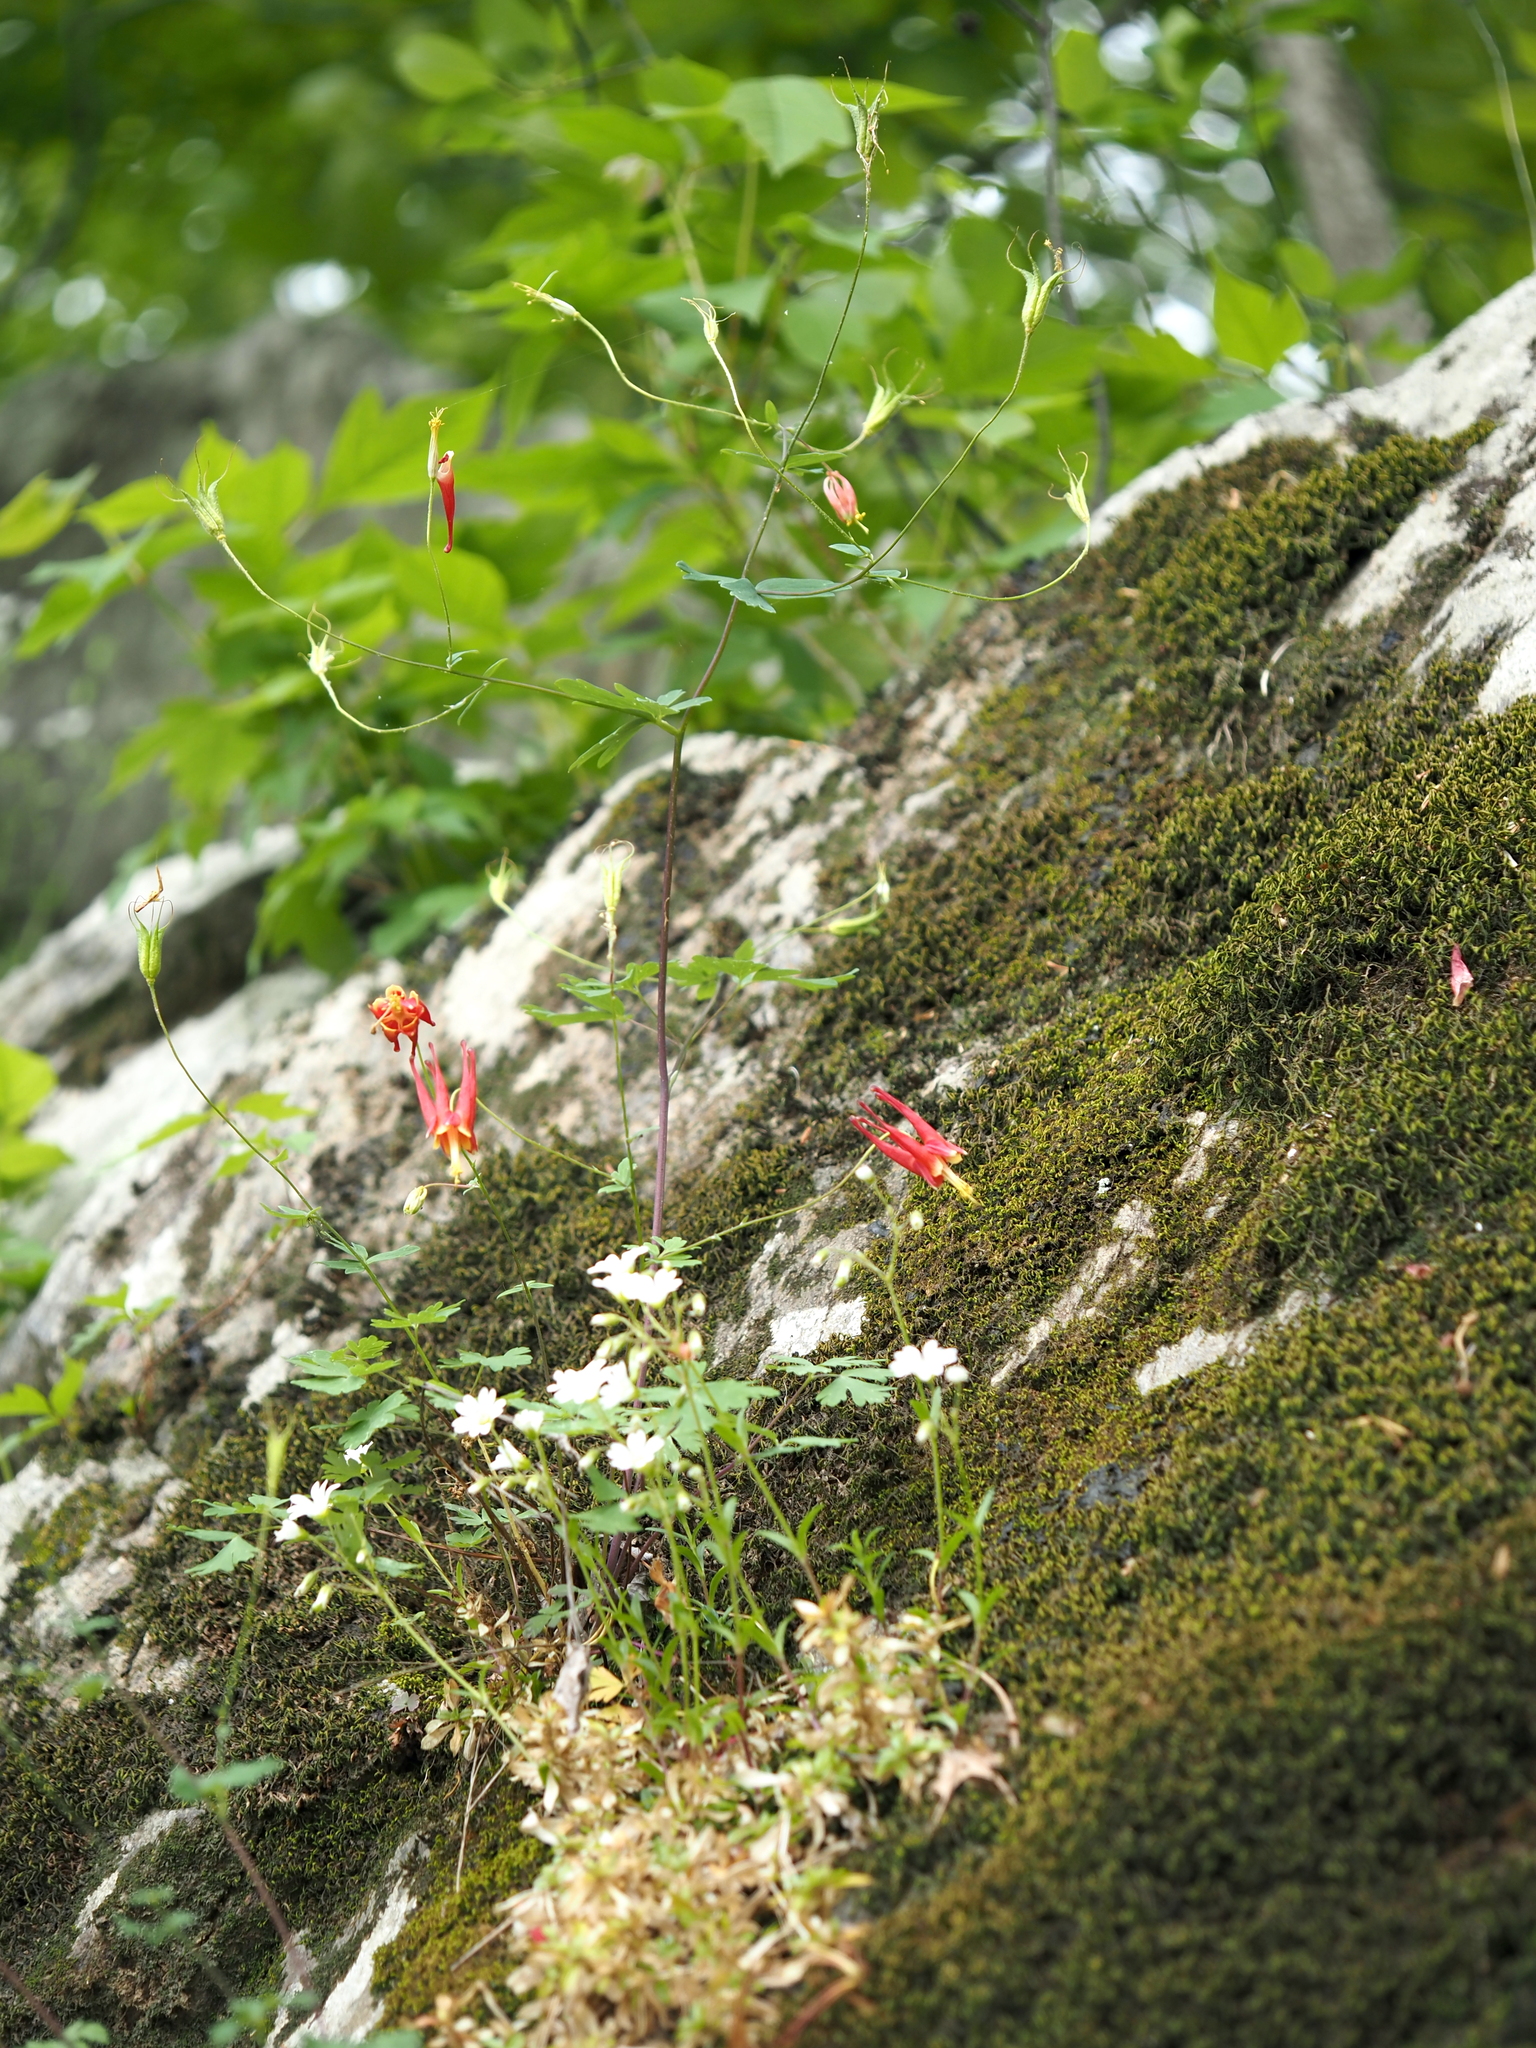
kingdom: Plantae
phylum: Tracheophyta
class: Magnoliopsida
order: Ranunculales
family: Ranunculaceae
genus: Aquilegia
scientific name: Aquilegia canadensis
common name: American columbine
